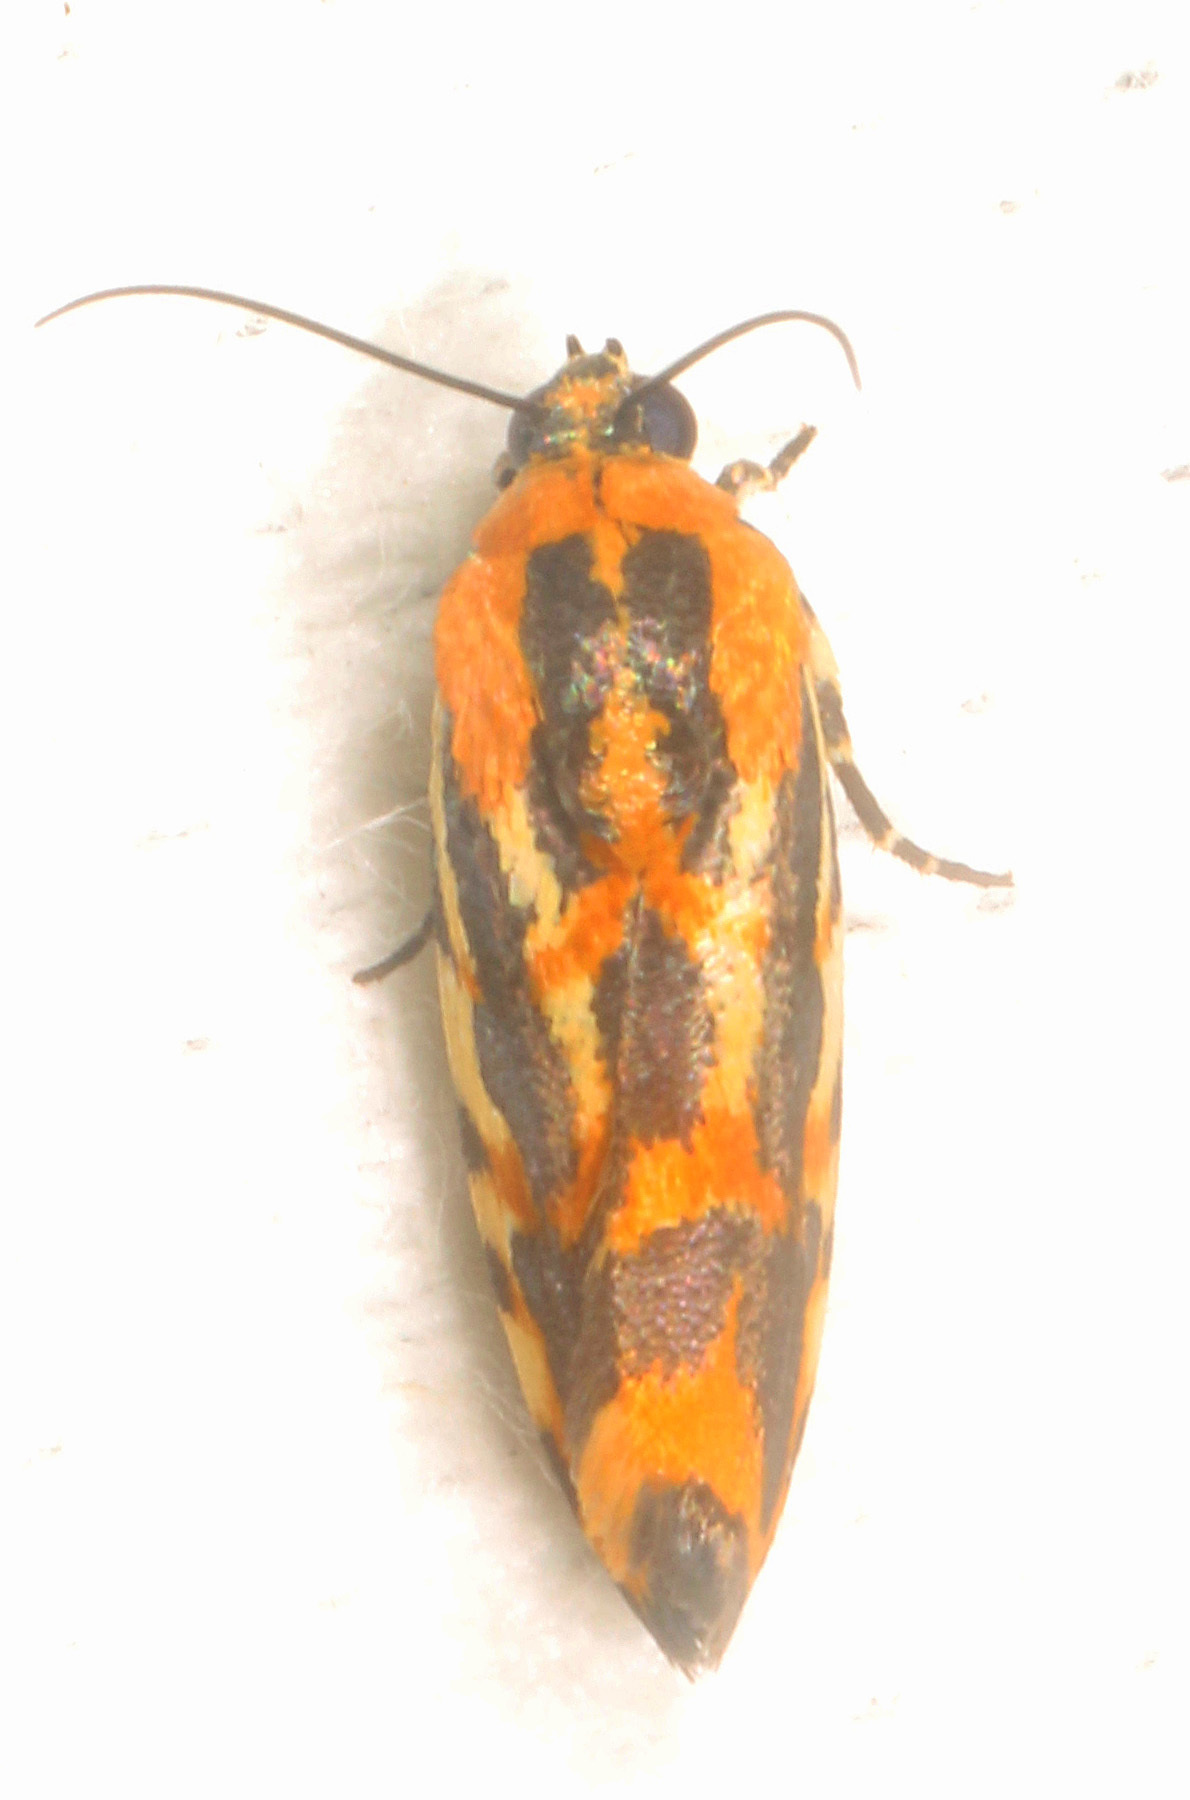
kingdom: Animalia
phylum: Arthropoda
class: Insecta
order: Lepidoptera
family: Noctuidae
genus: Acontia
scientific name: Acontia leo
